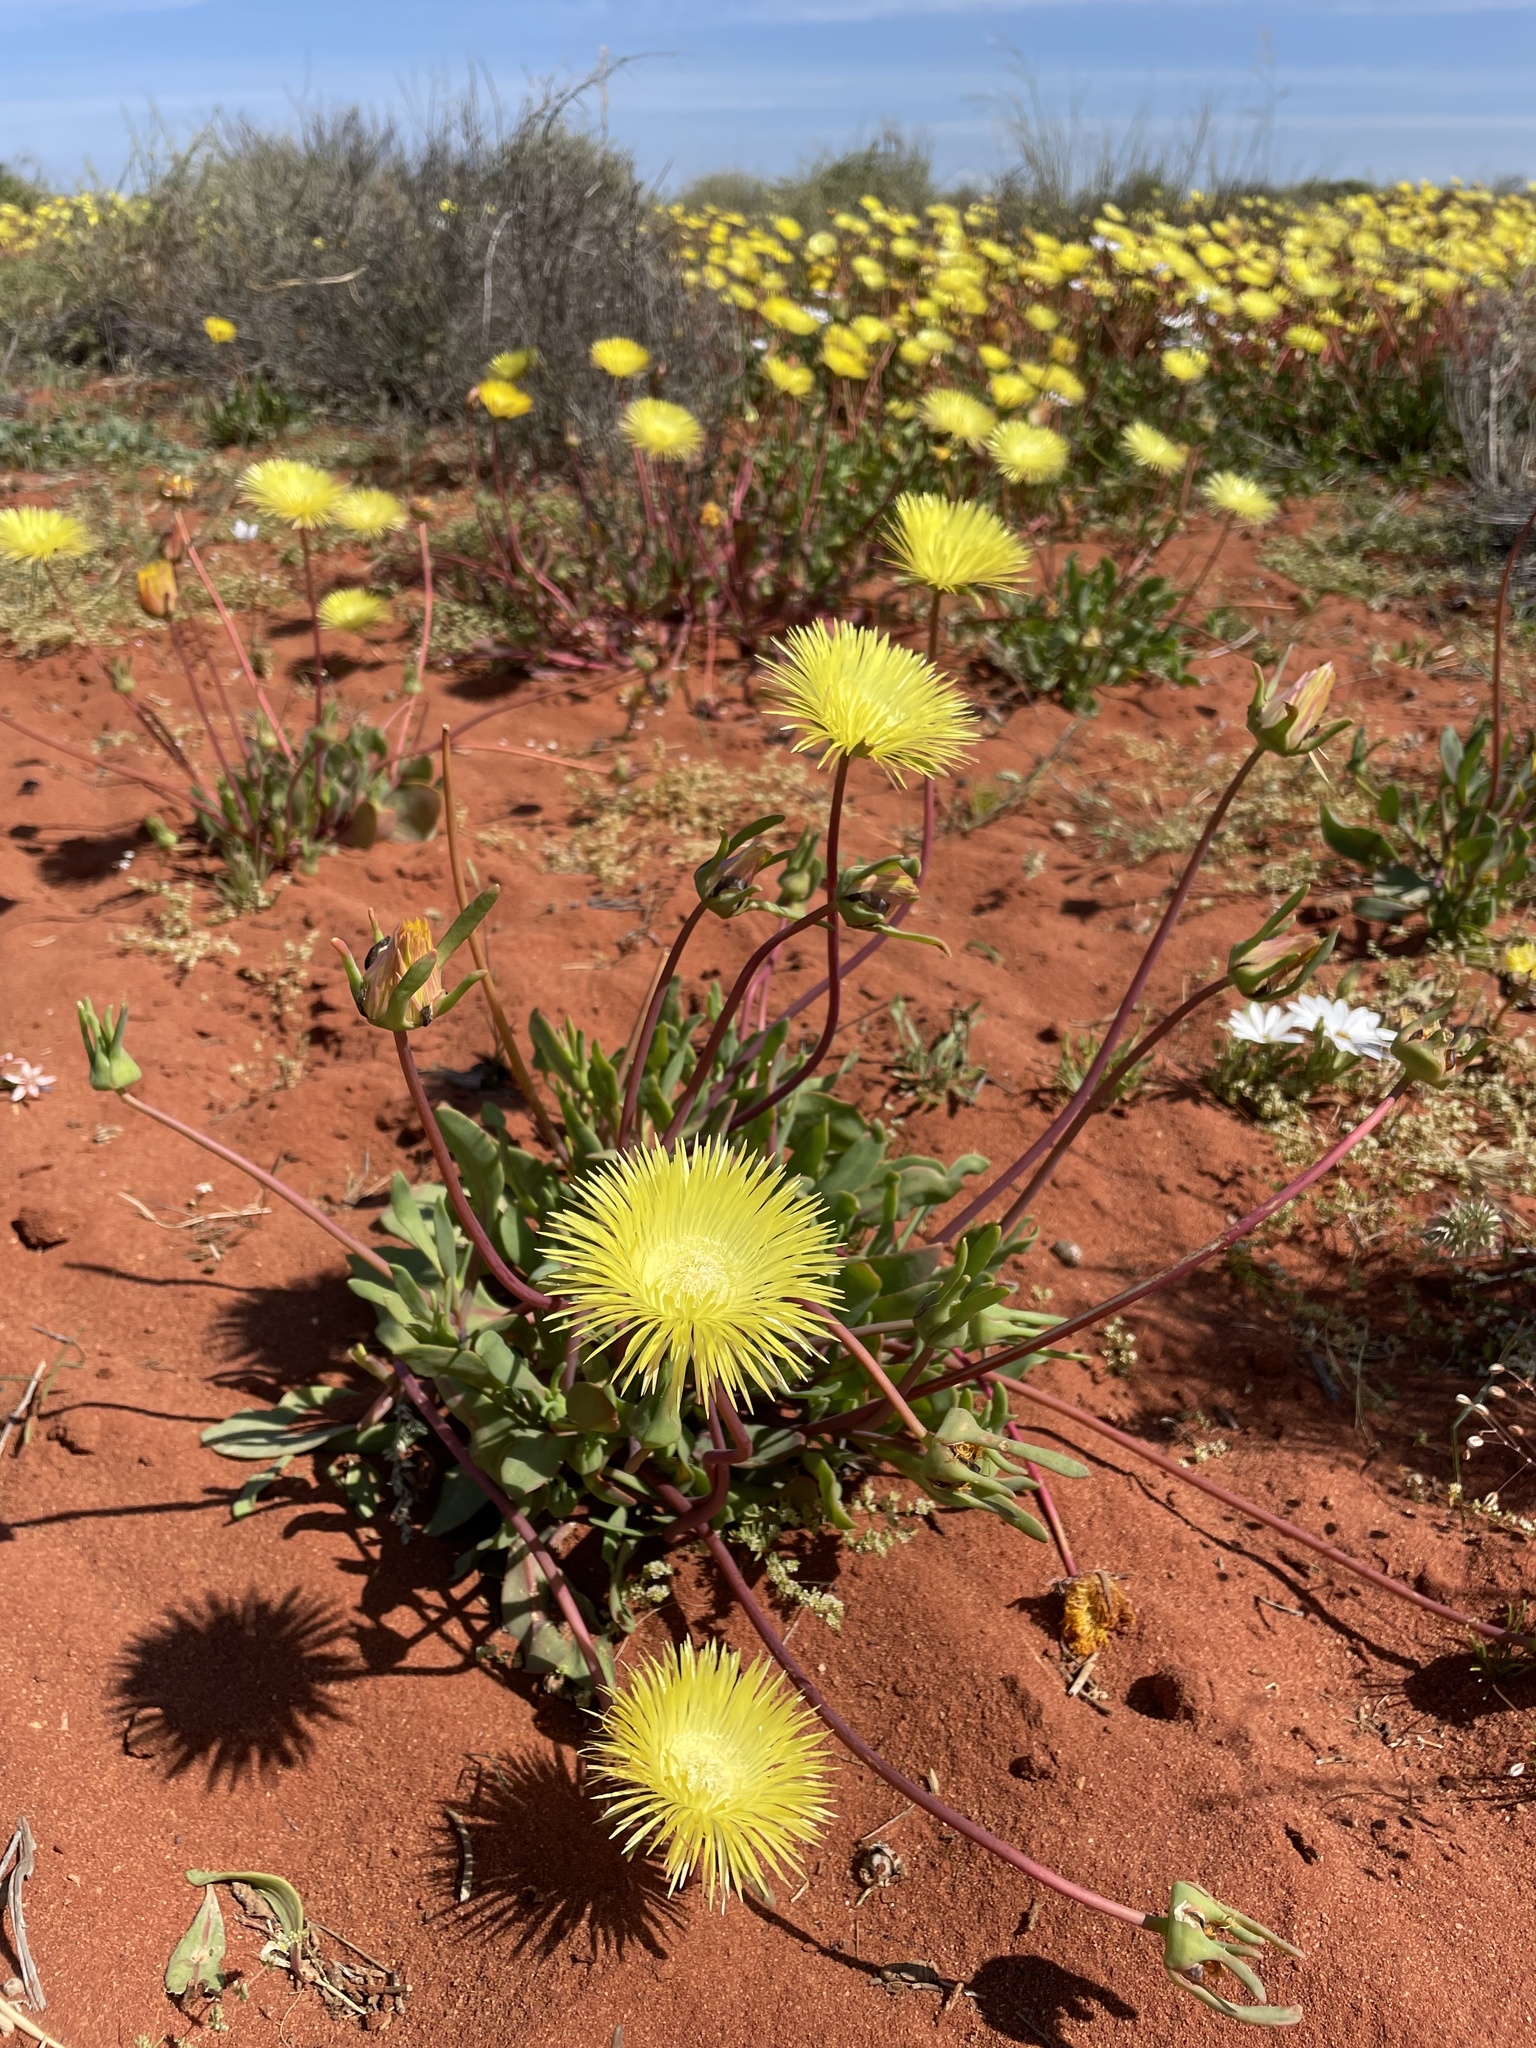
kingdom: Plantae
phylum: Tracheophyta
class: Magnoliopsida
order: Caryophyllales
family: Aizoaceae
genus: Apatesia
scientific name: Apatesia helianthoides
